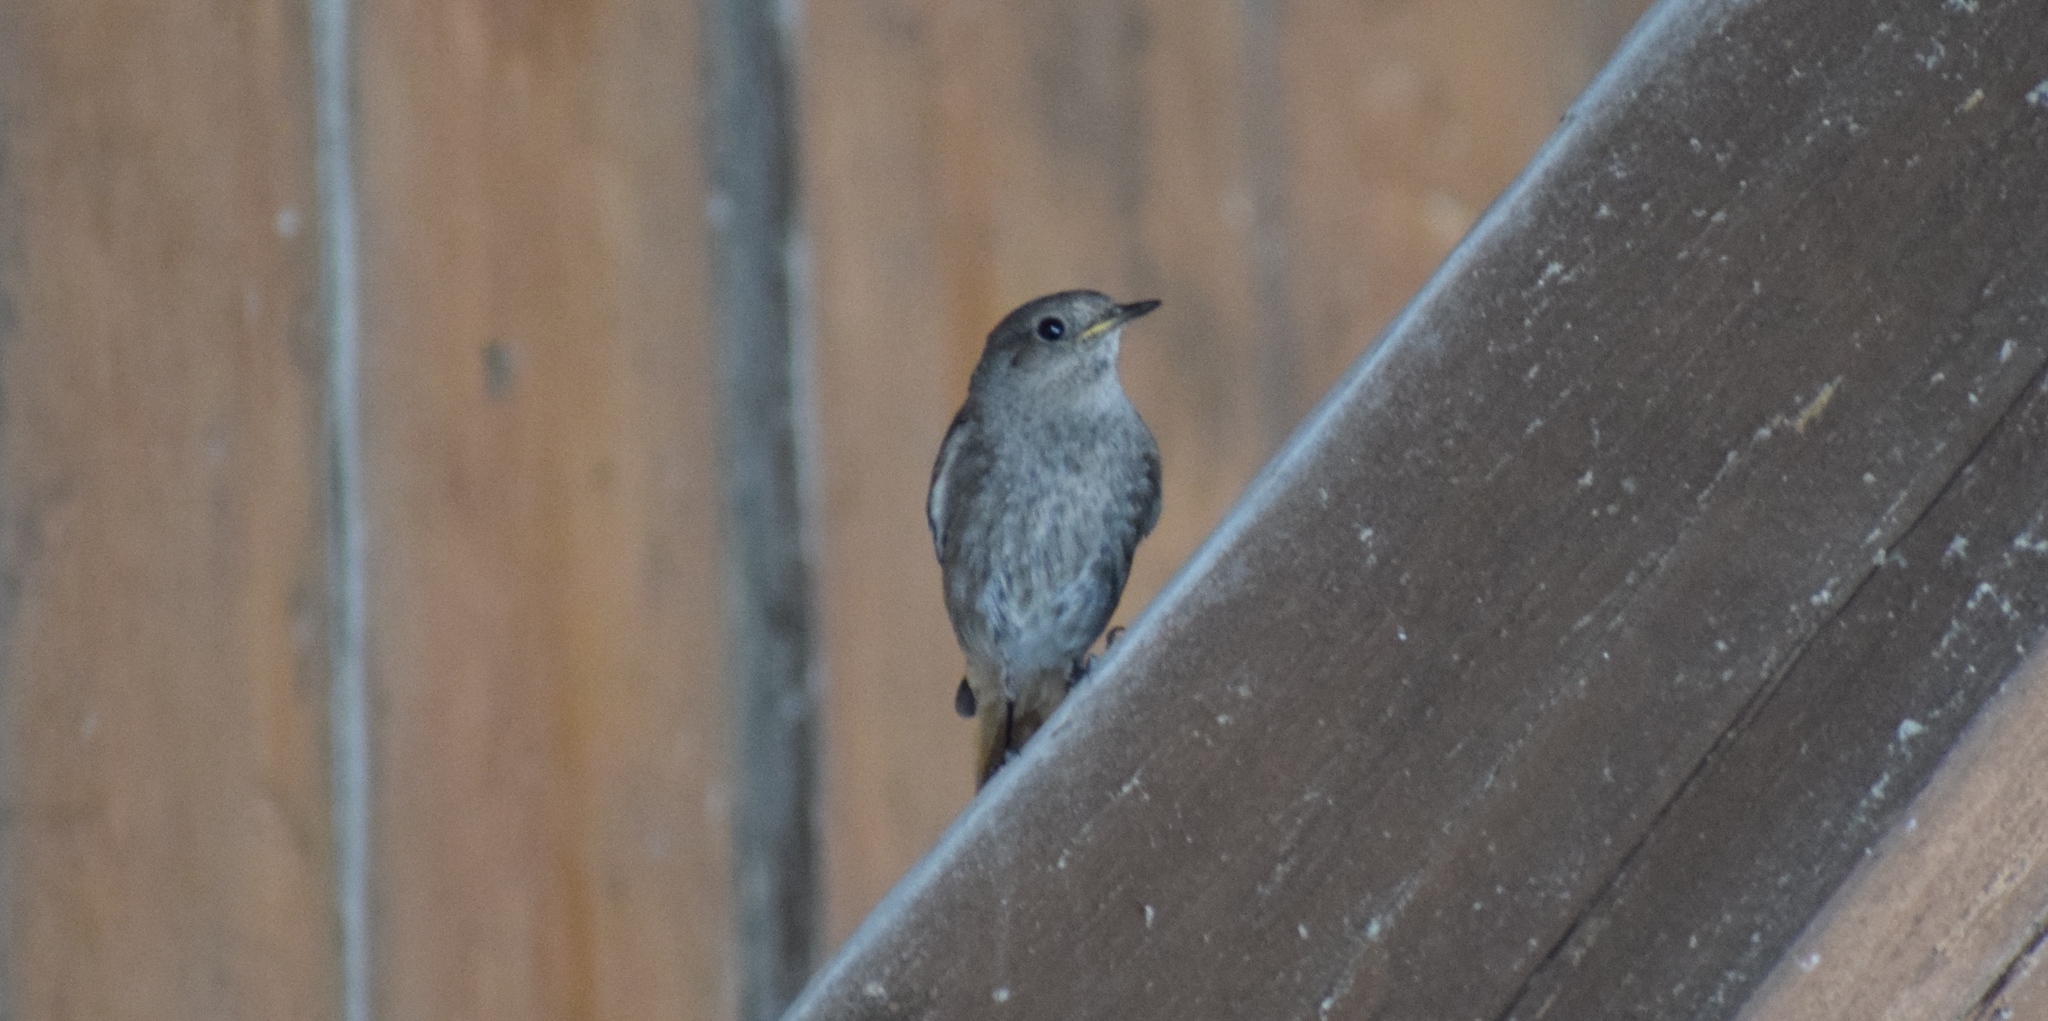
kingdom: Animalia
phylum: Chordata
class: Aves
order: Passeriformes
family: Muscicapidae
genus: Phoenicurus
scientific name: Phoenicurus ochruros
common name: Black redstart
